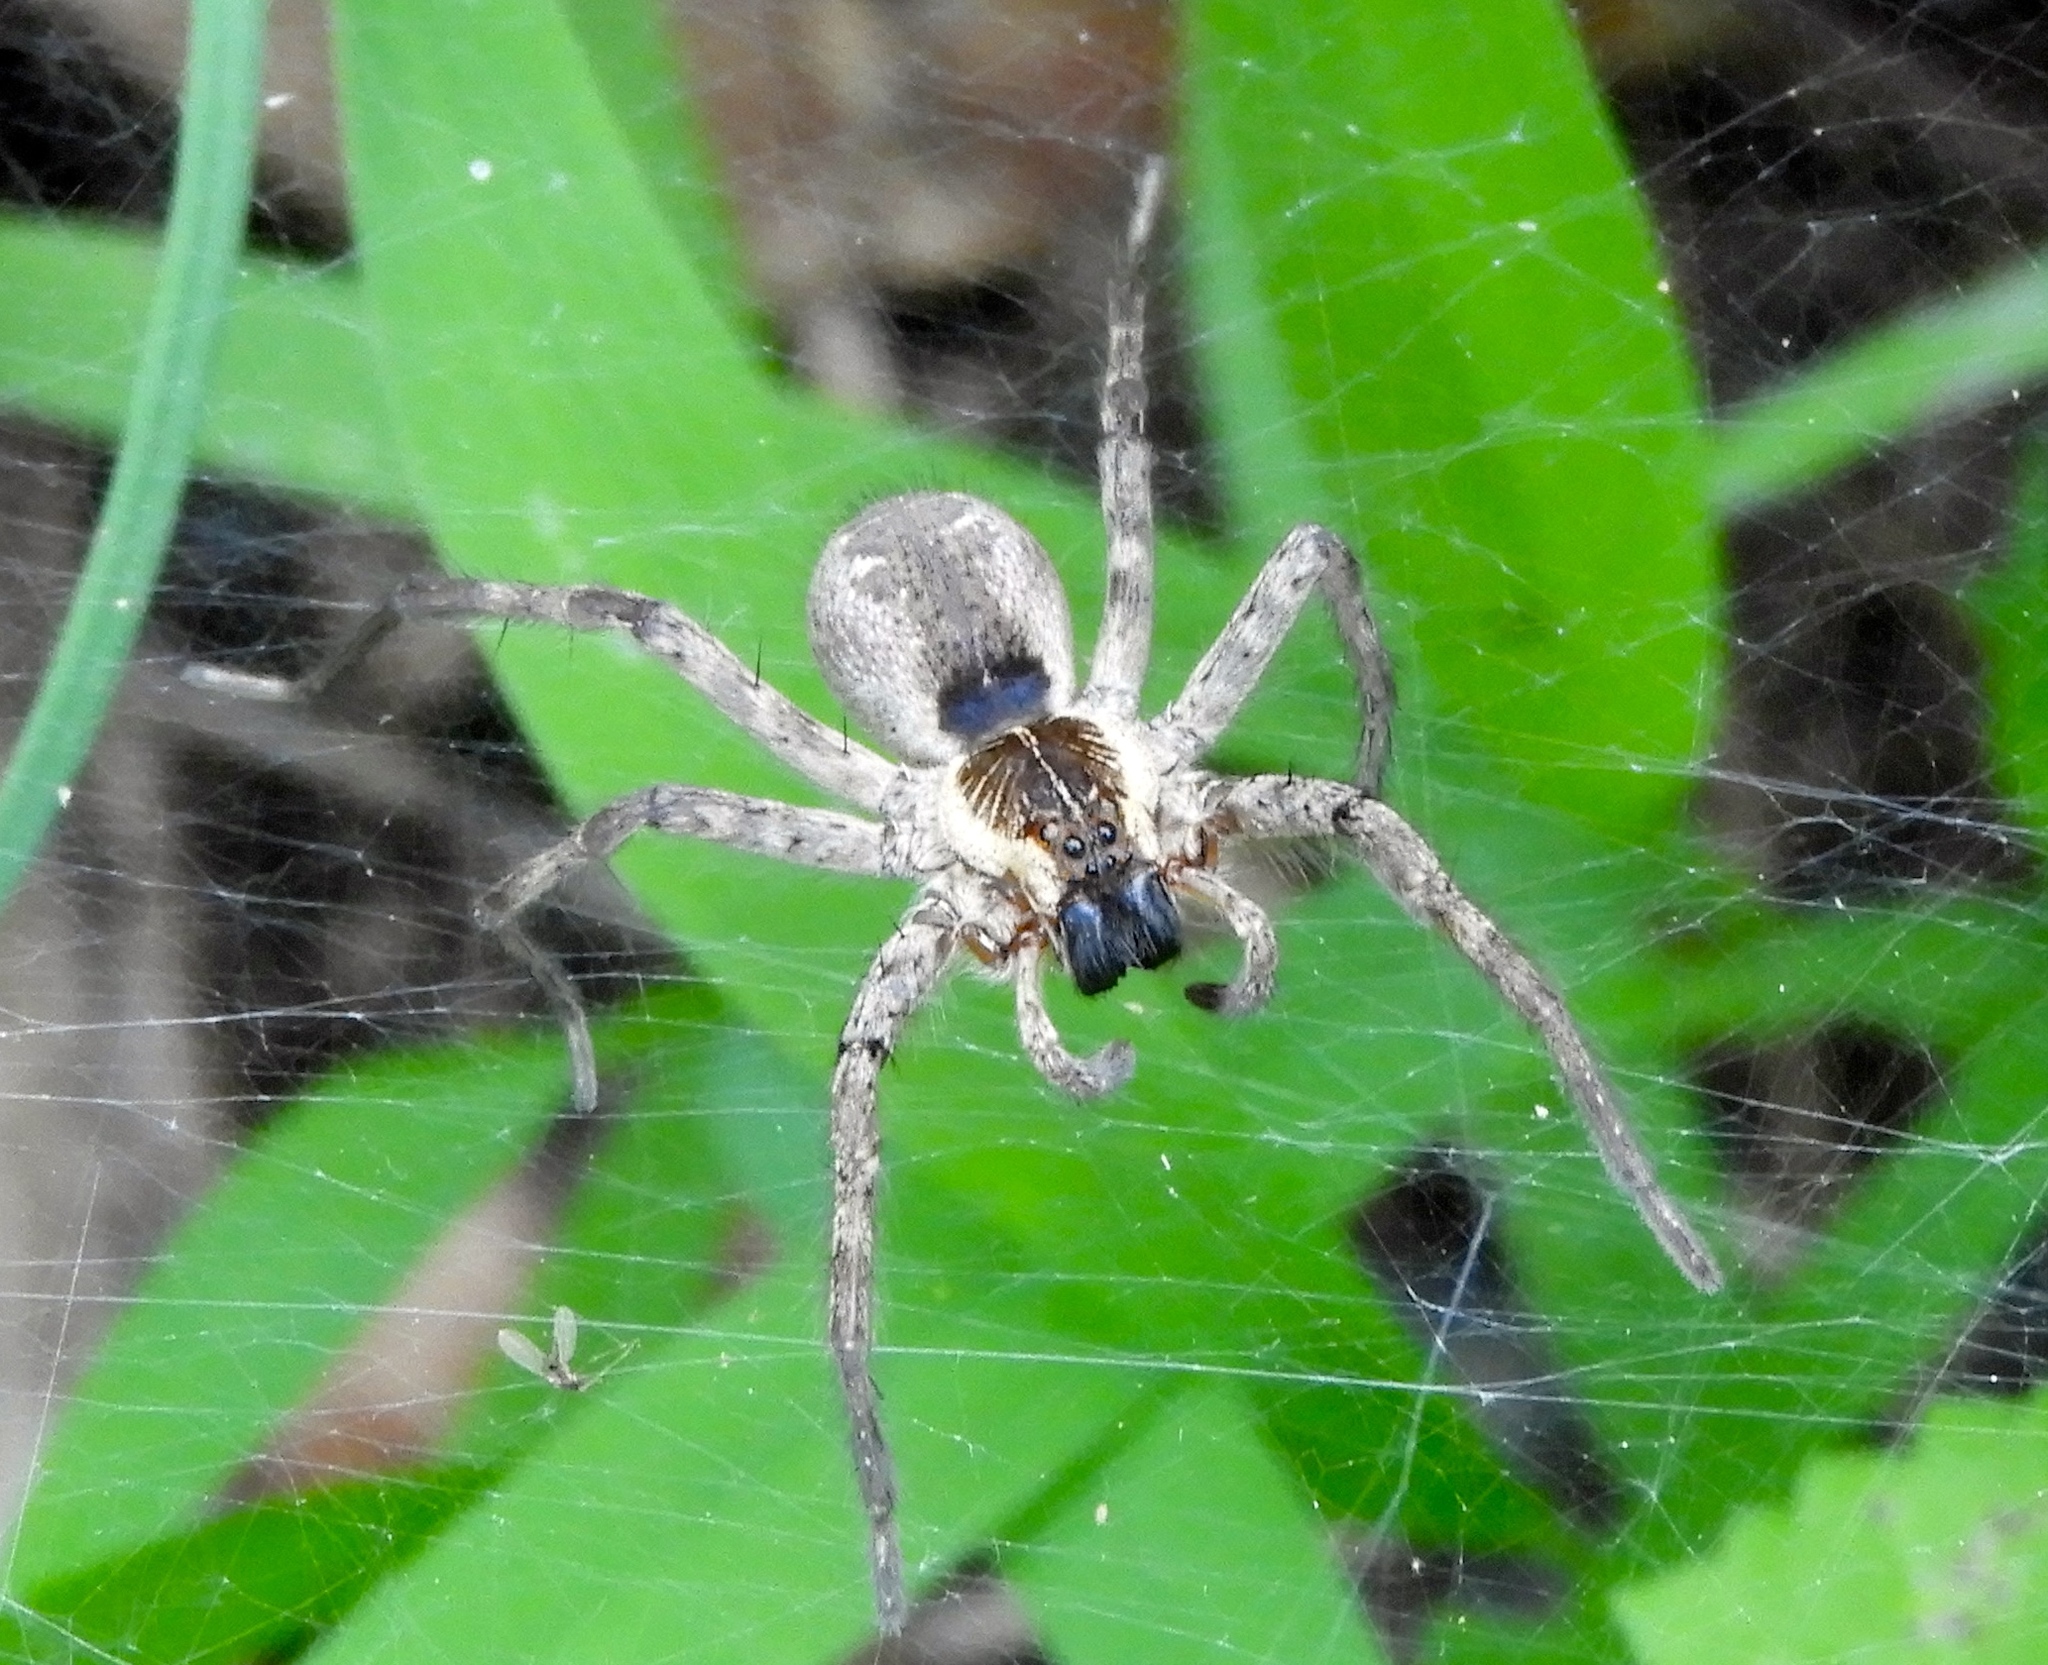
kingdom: Animalia
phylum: Arthropoda
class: Arachnida
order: Araneae
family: Lycosidae
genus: Sosippus
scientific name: Sosippus
